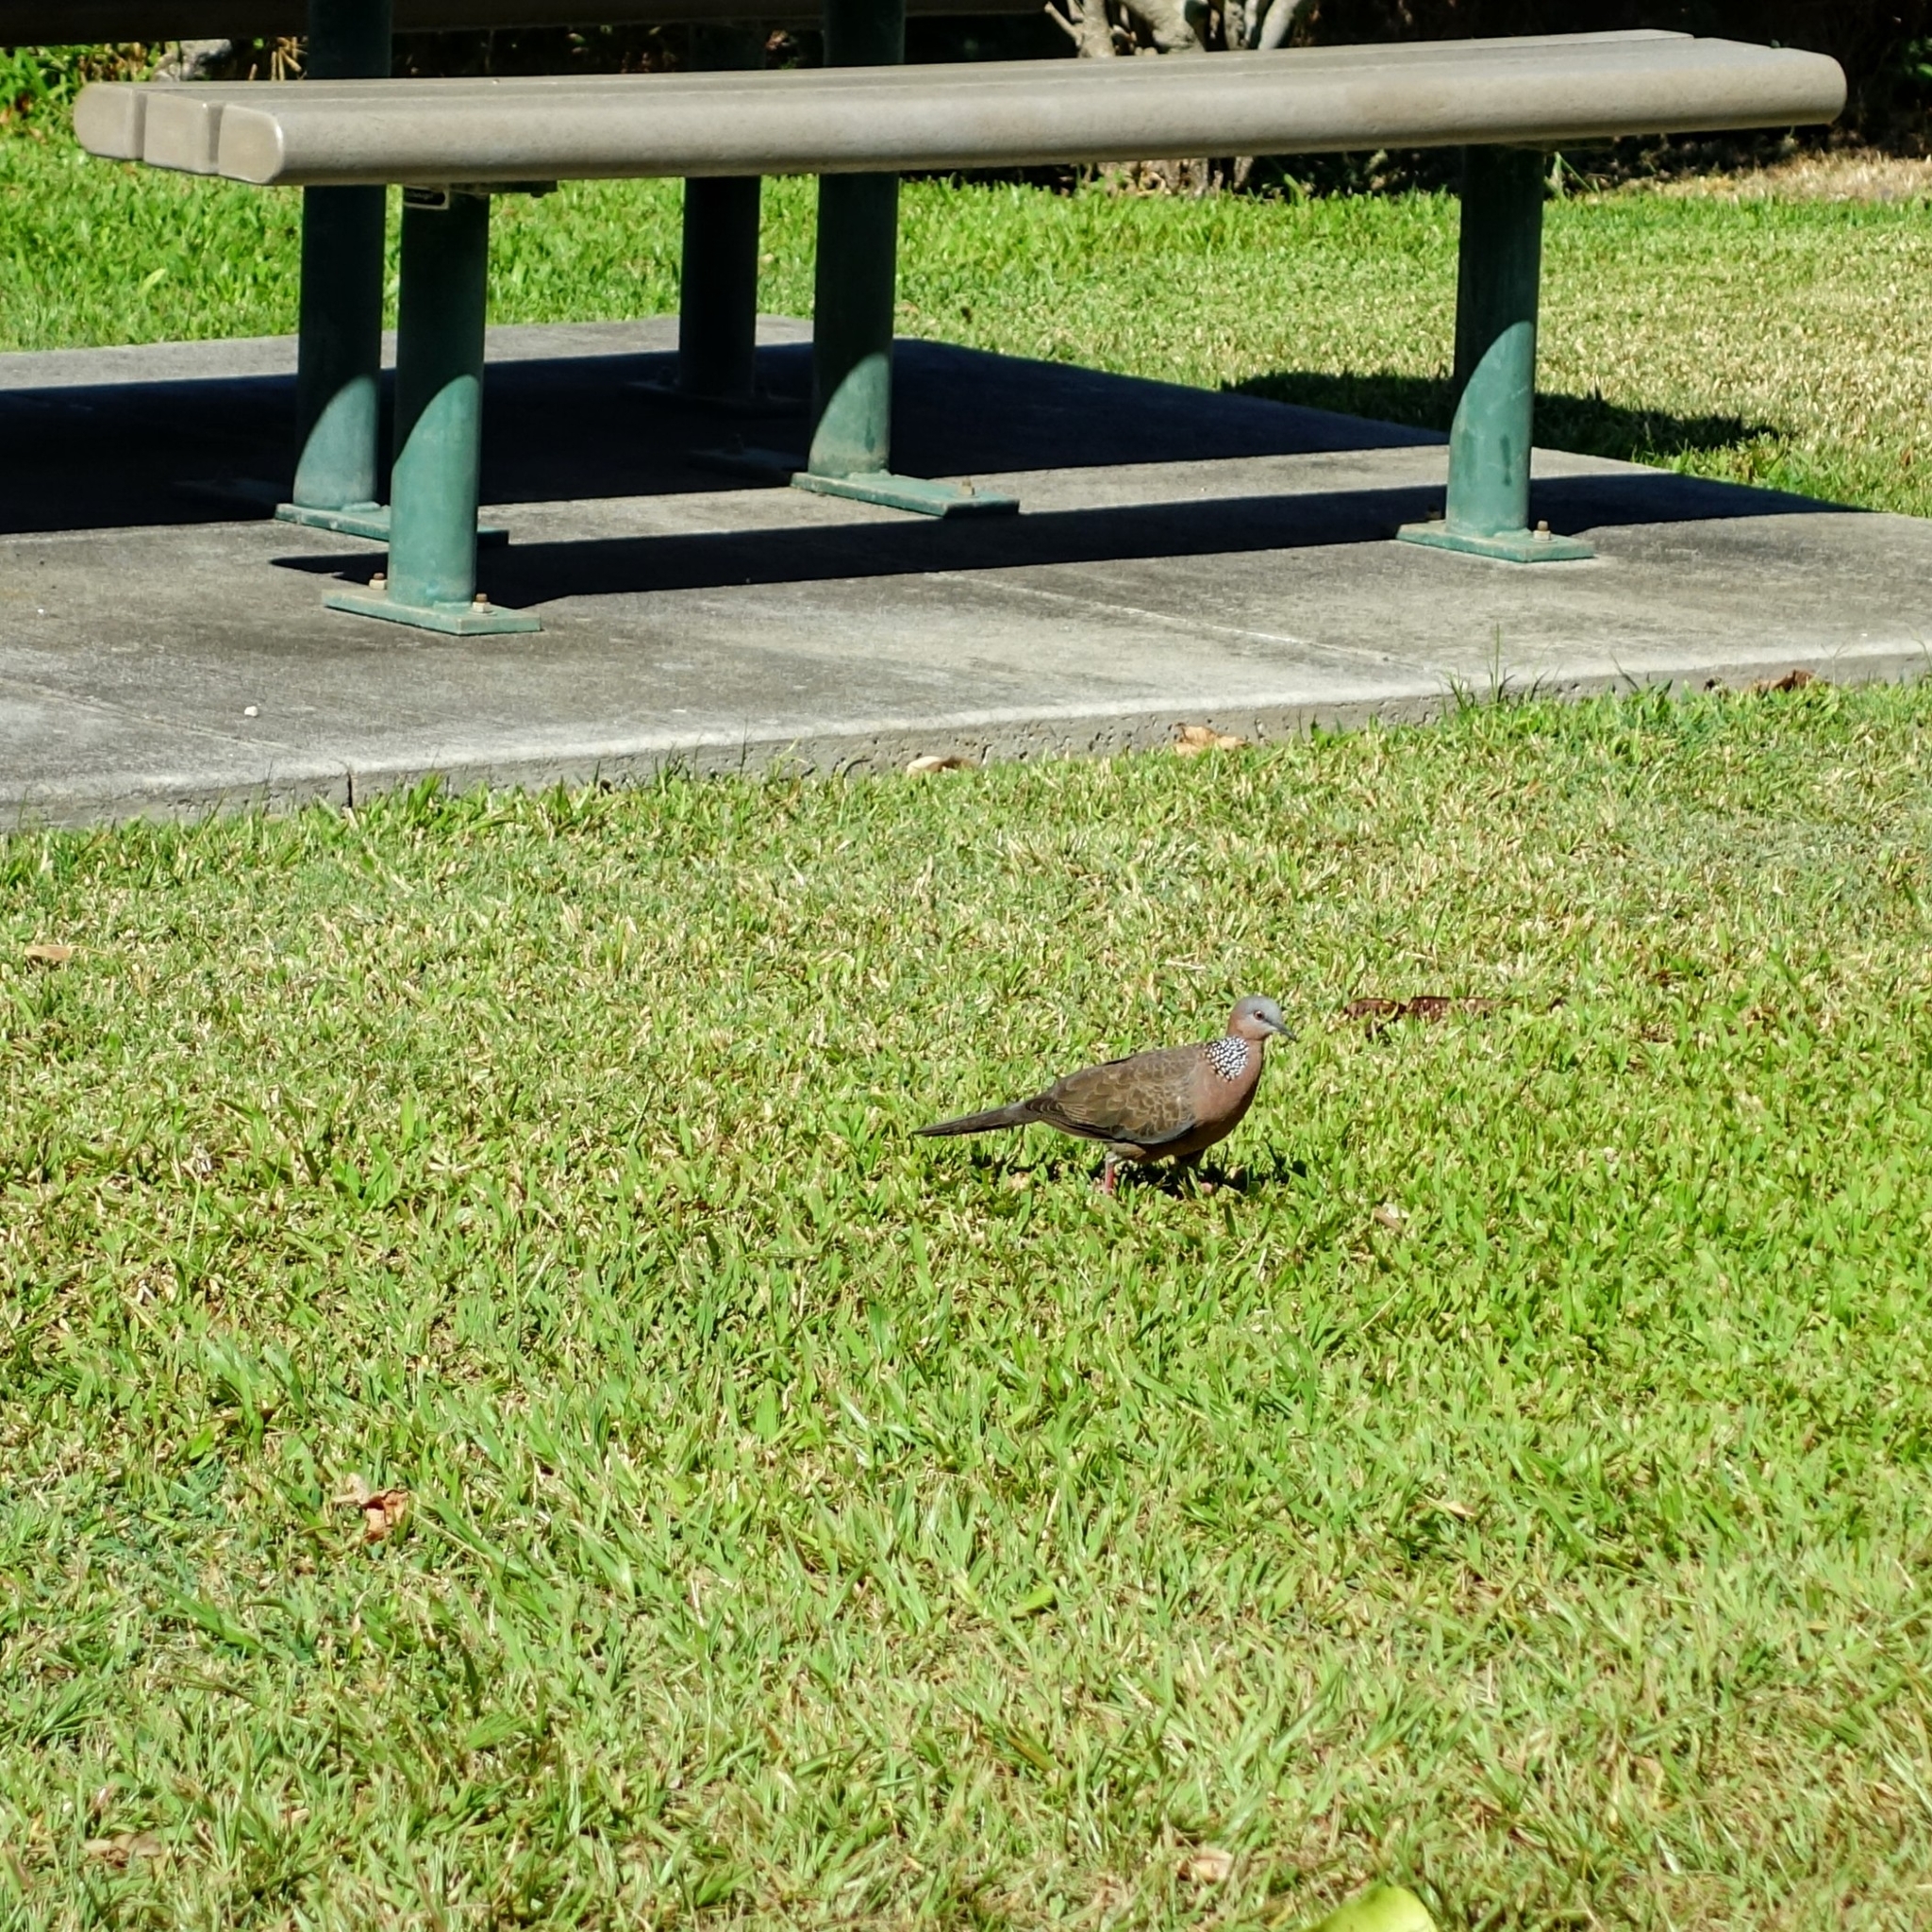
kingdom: Animalia
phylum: Chordata
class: Aves
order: Columbiformes
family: Columbidae
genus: Spilopelia
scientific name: Spilopelia chinensis
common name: Spotted dove
